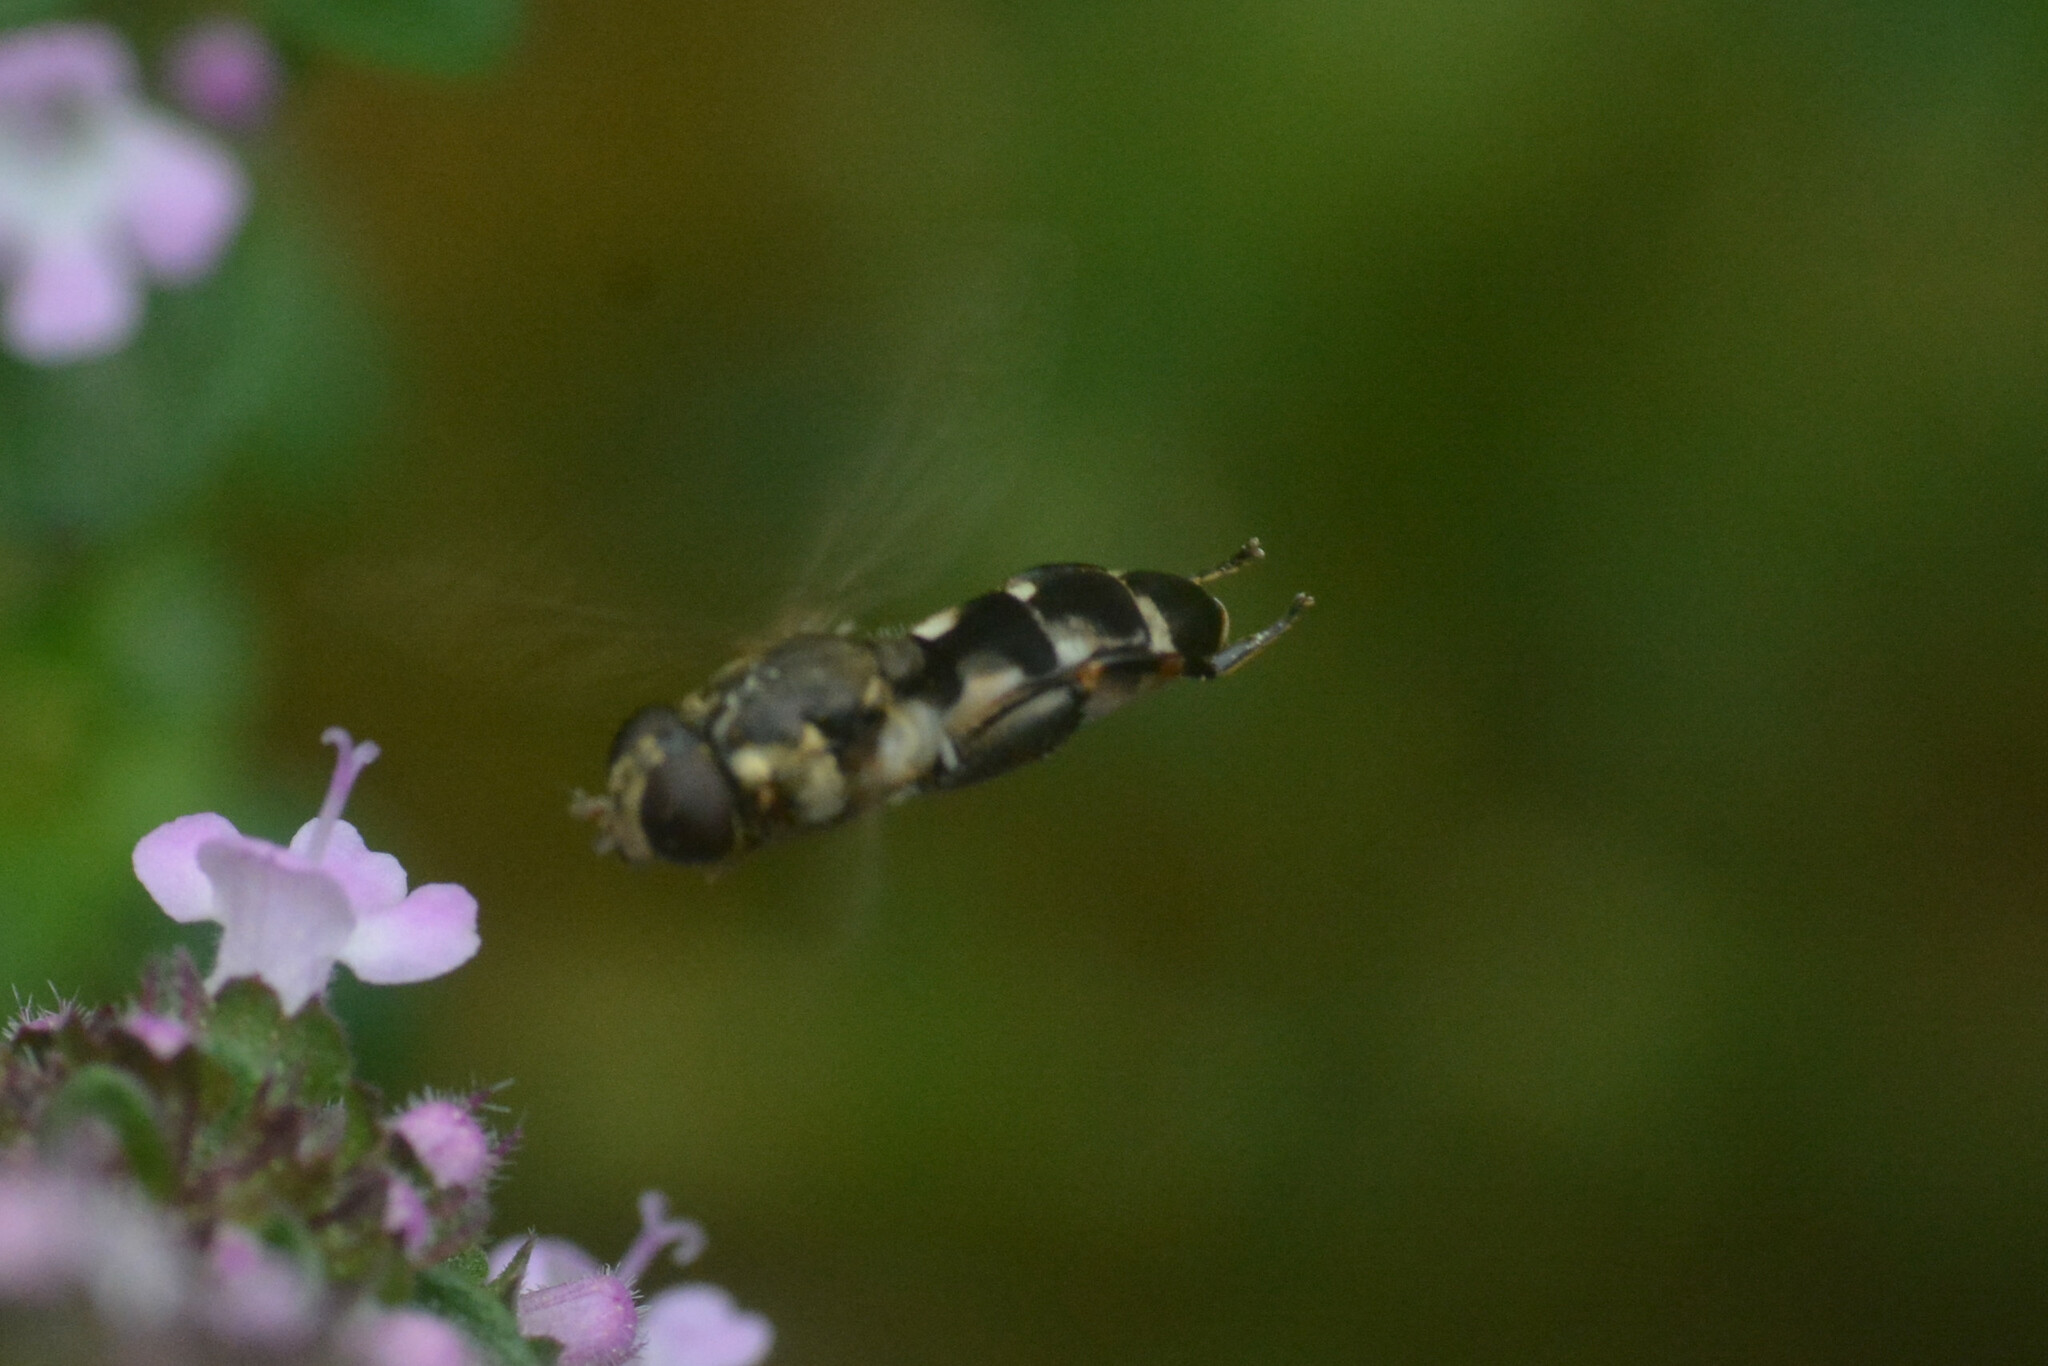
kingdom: Animalia
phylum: Arthropoda
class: Insecta
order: Diptera
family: Syrphidae
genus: Syritta
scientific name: Syritta pipiens
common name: Hover fly
